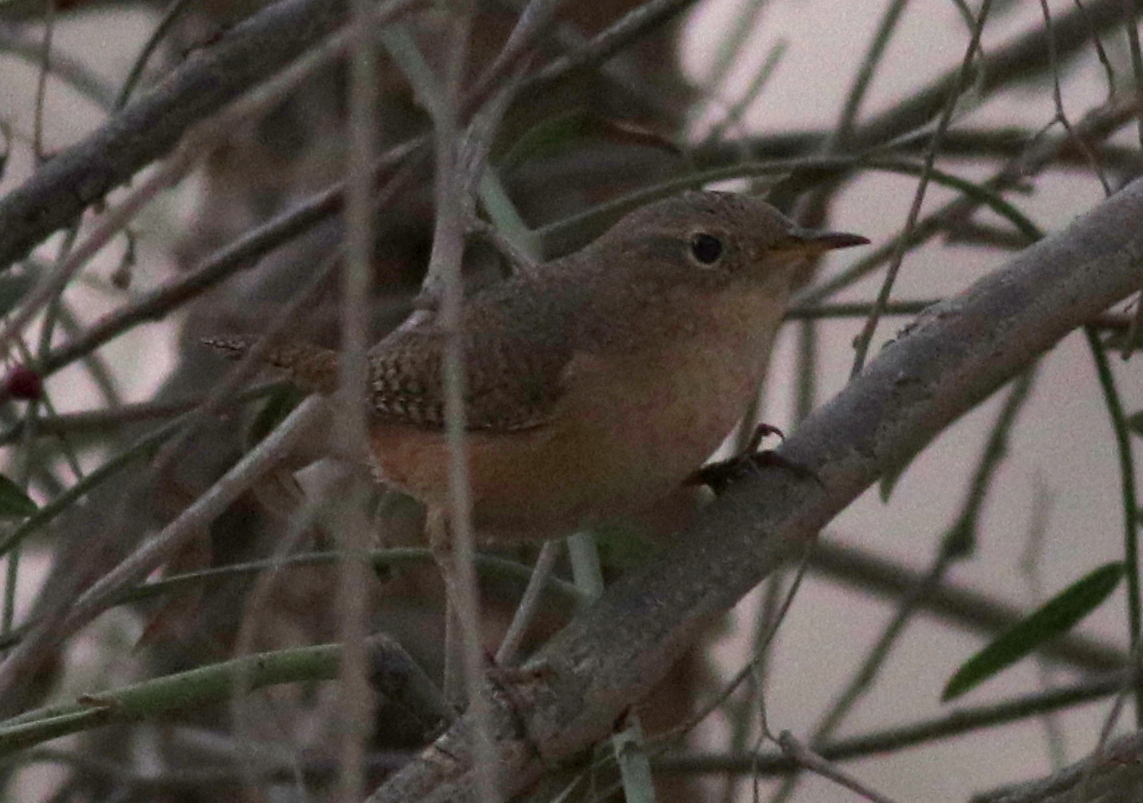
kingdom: Animalia
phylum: Chordata
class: Aves
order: Passeriformes
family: Troglodytidae
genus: Troglodytes
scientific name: Troglodytes aedon
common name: House wren
